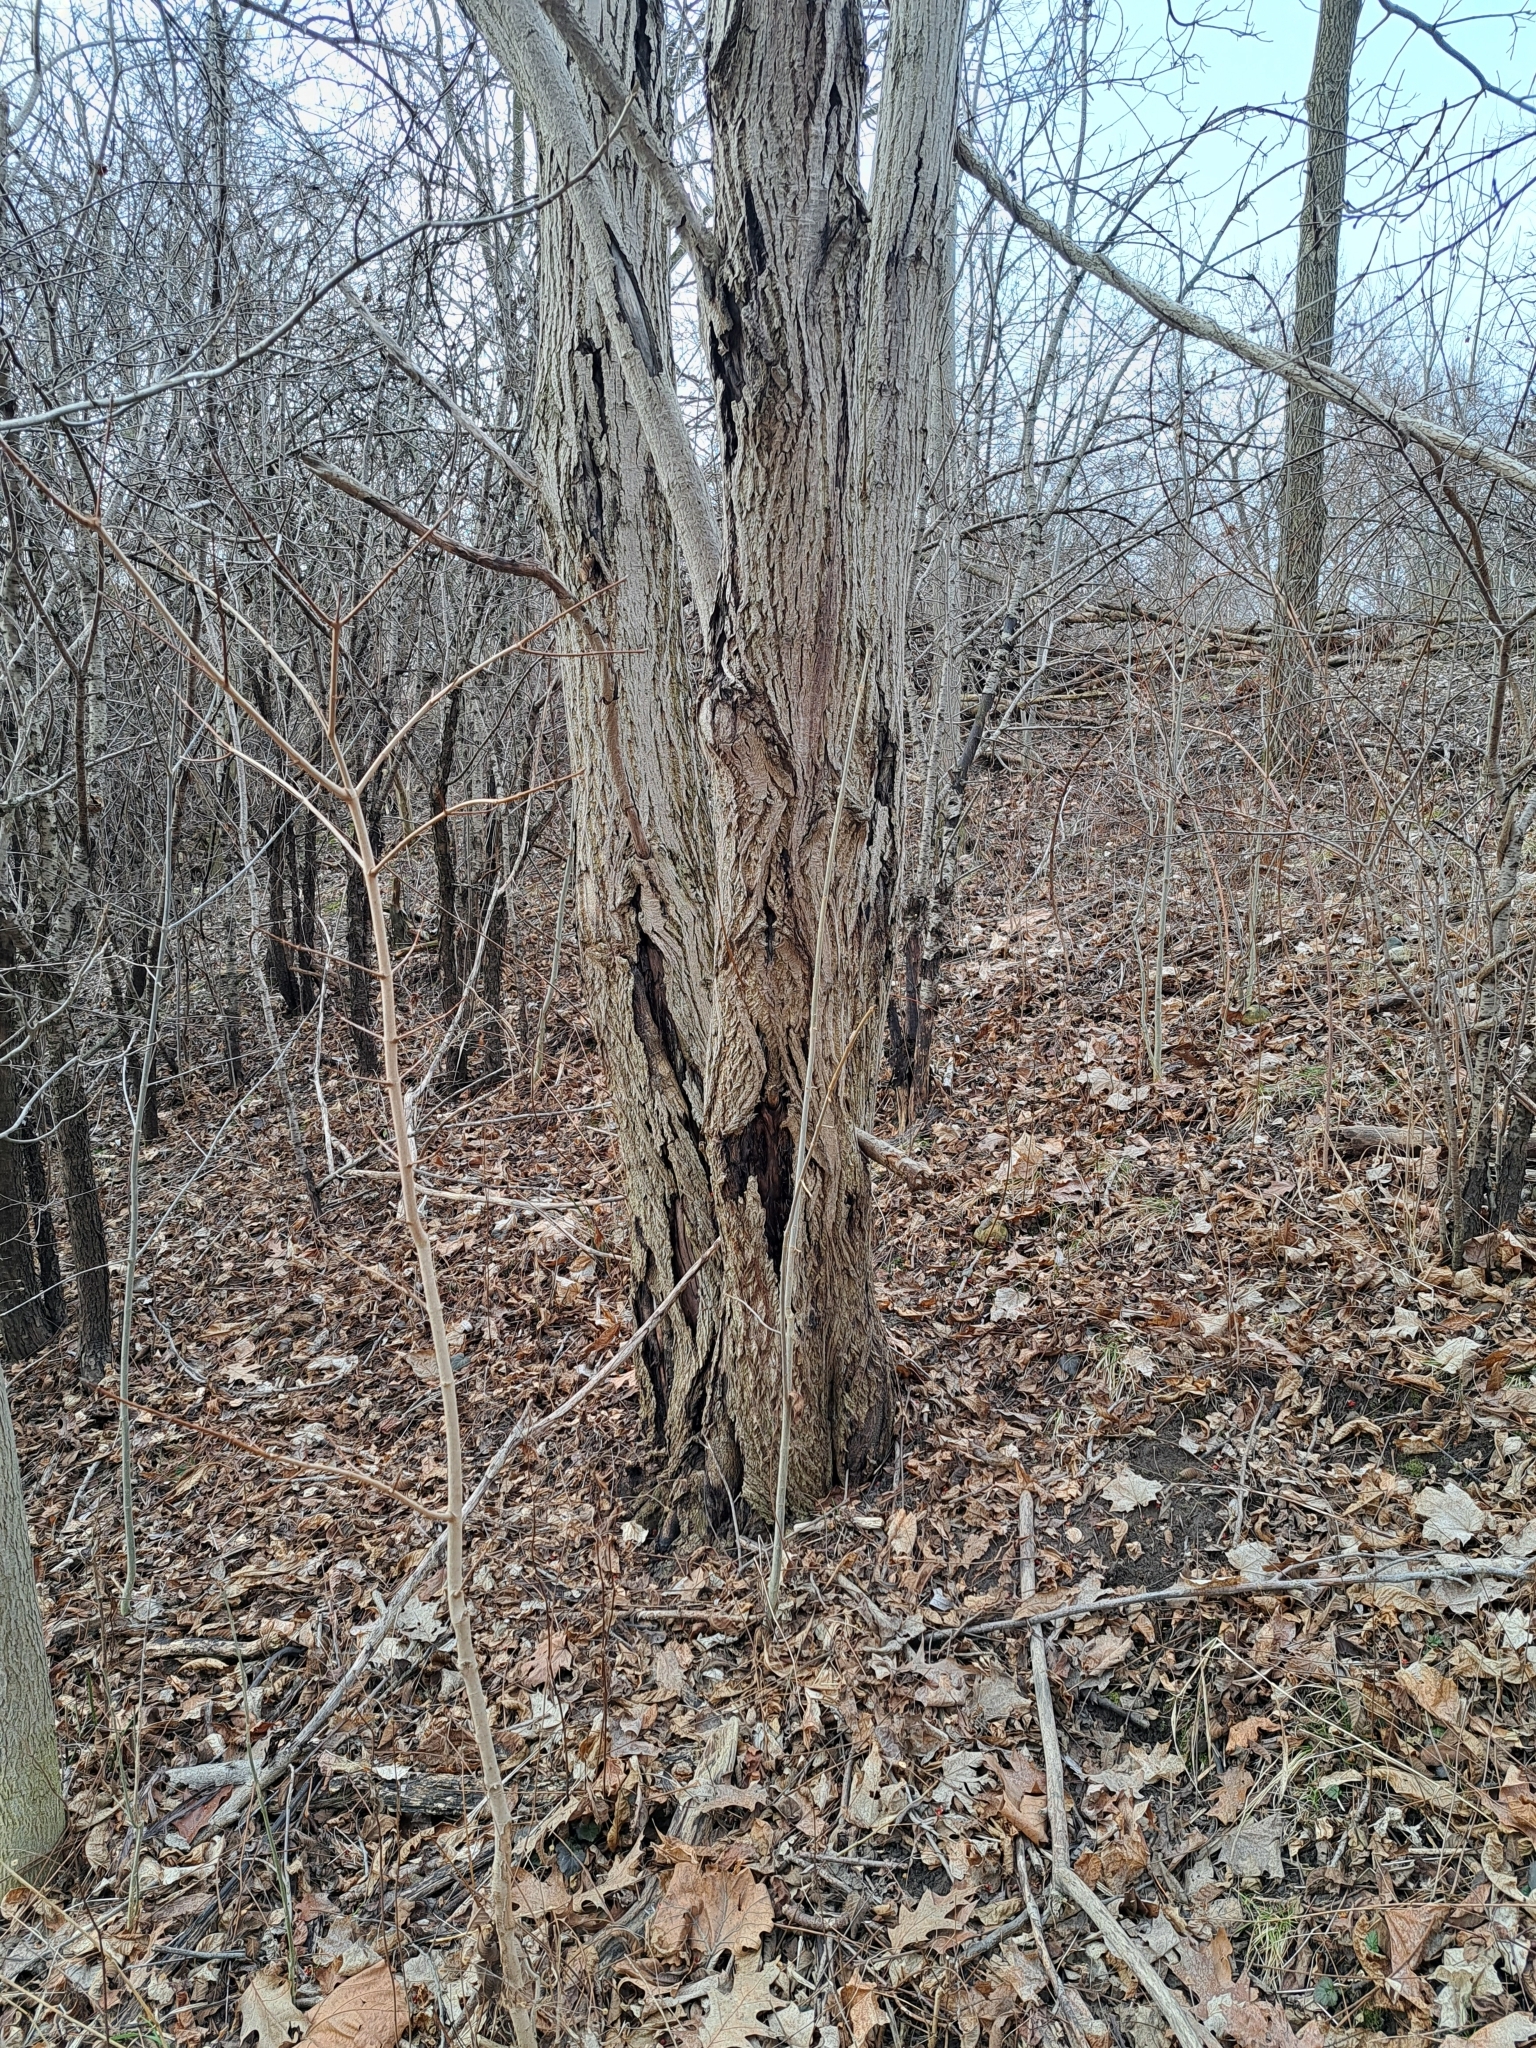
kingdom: Plantae
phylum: Tracheophyta
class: Magnoliopsida
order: Fagales
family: Juglandaceae
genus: Juglans
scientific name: Juglans cinerea
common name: Butternut
